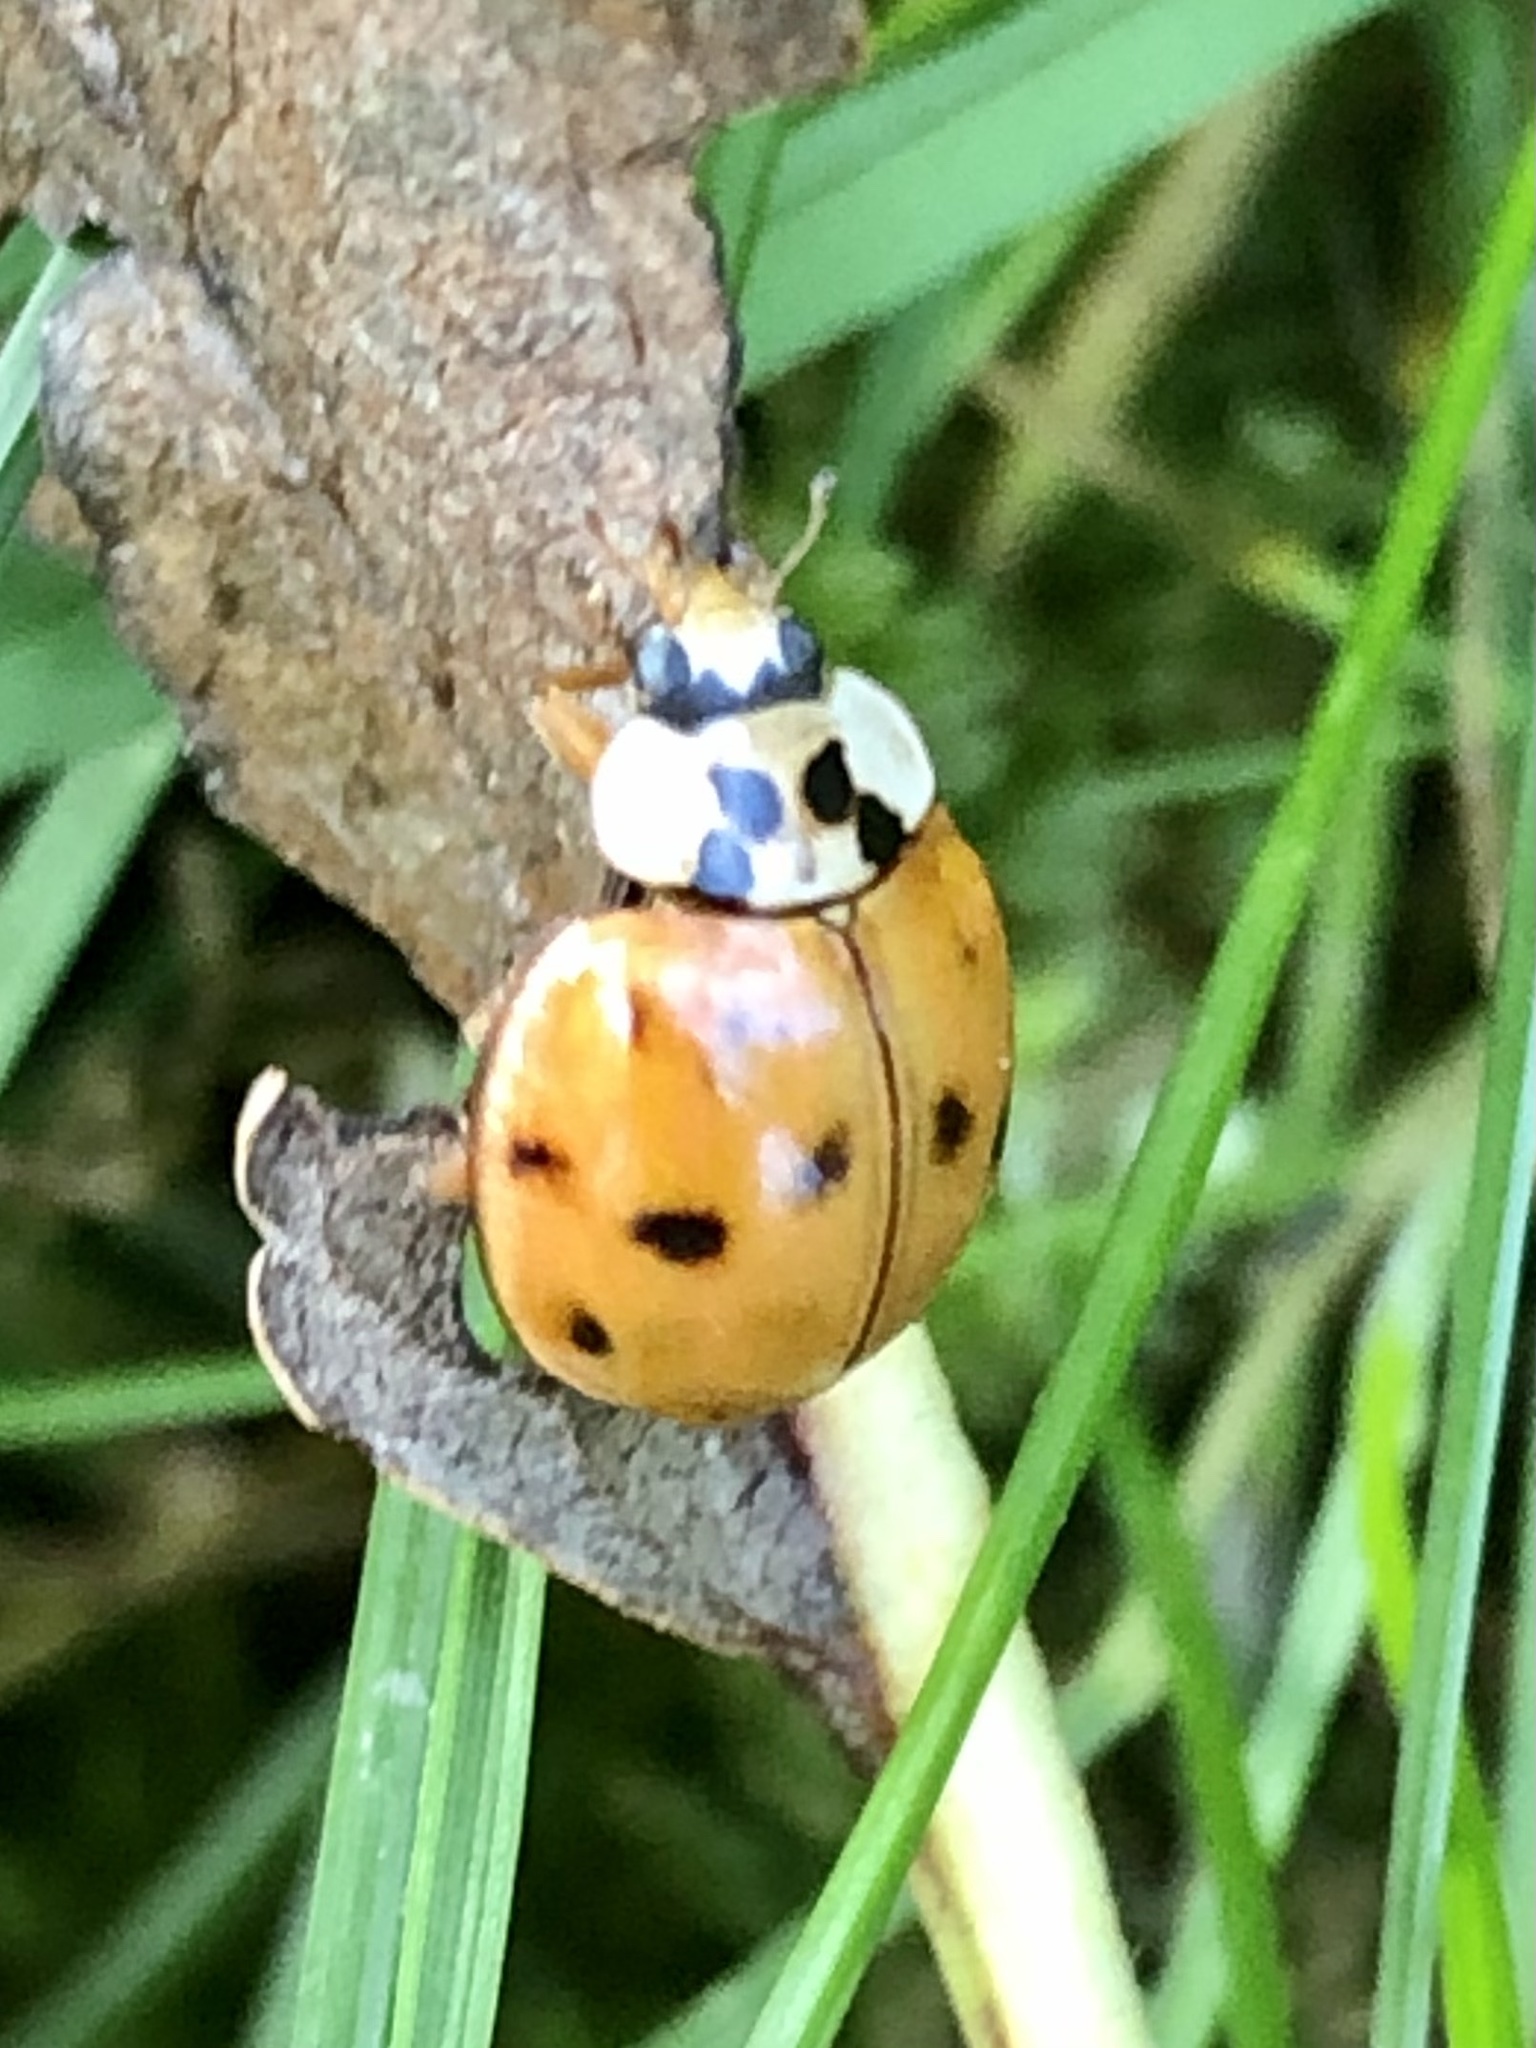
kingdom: Animalia
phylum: Arthropoda
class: Insecta
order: Coleoptera
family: Coccinellidae
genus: Harmonia
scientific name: Harmonia axyridis
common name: Harlequin ladybird
